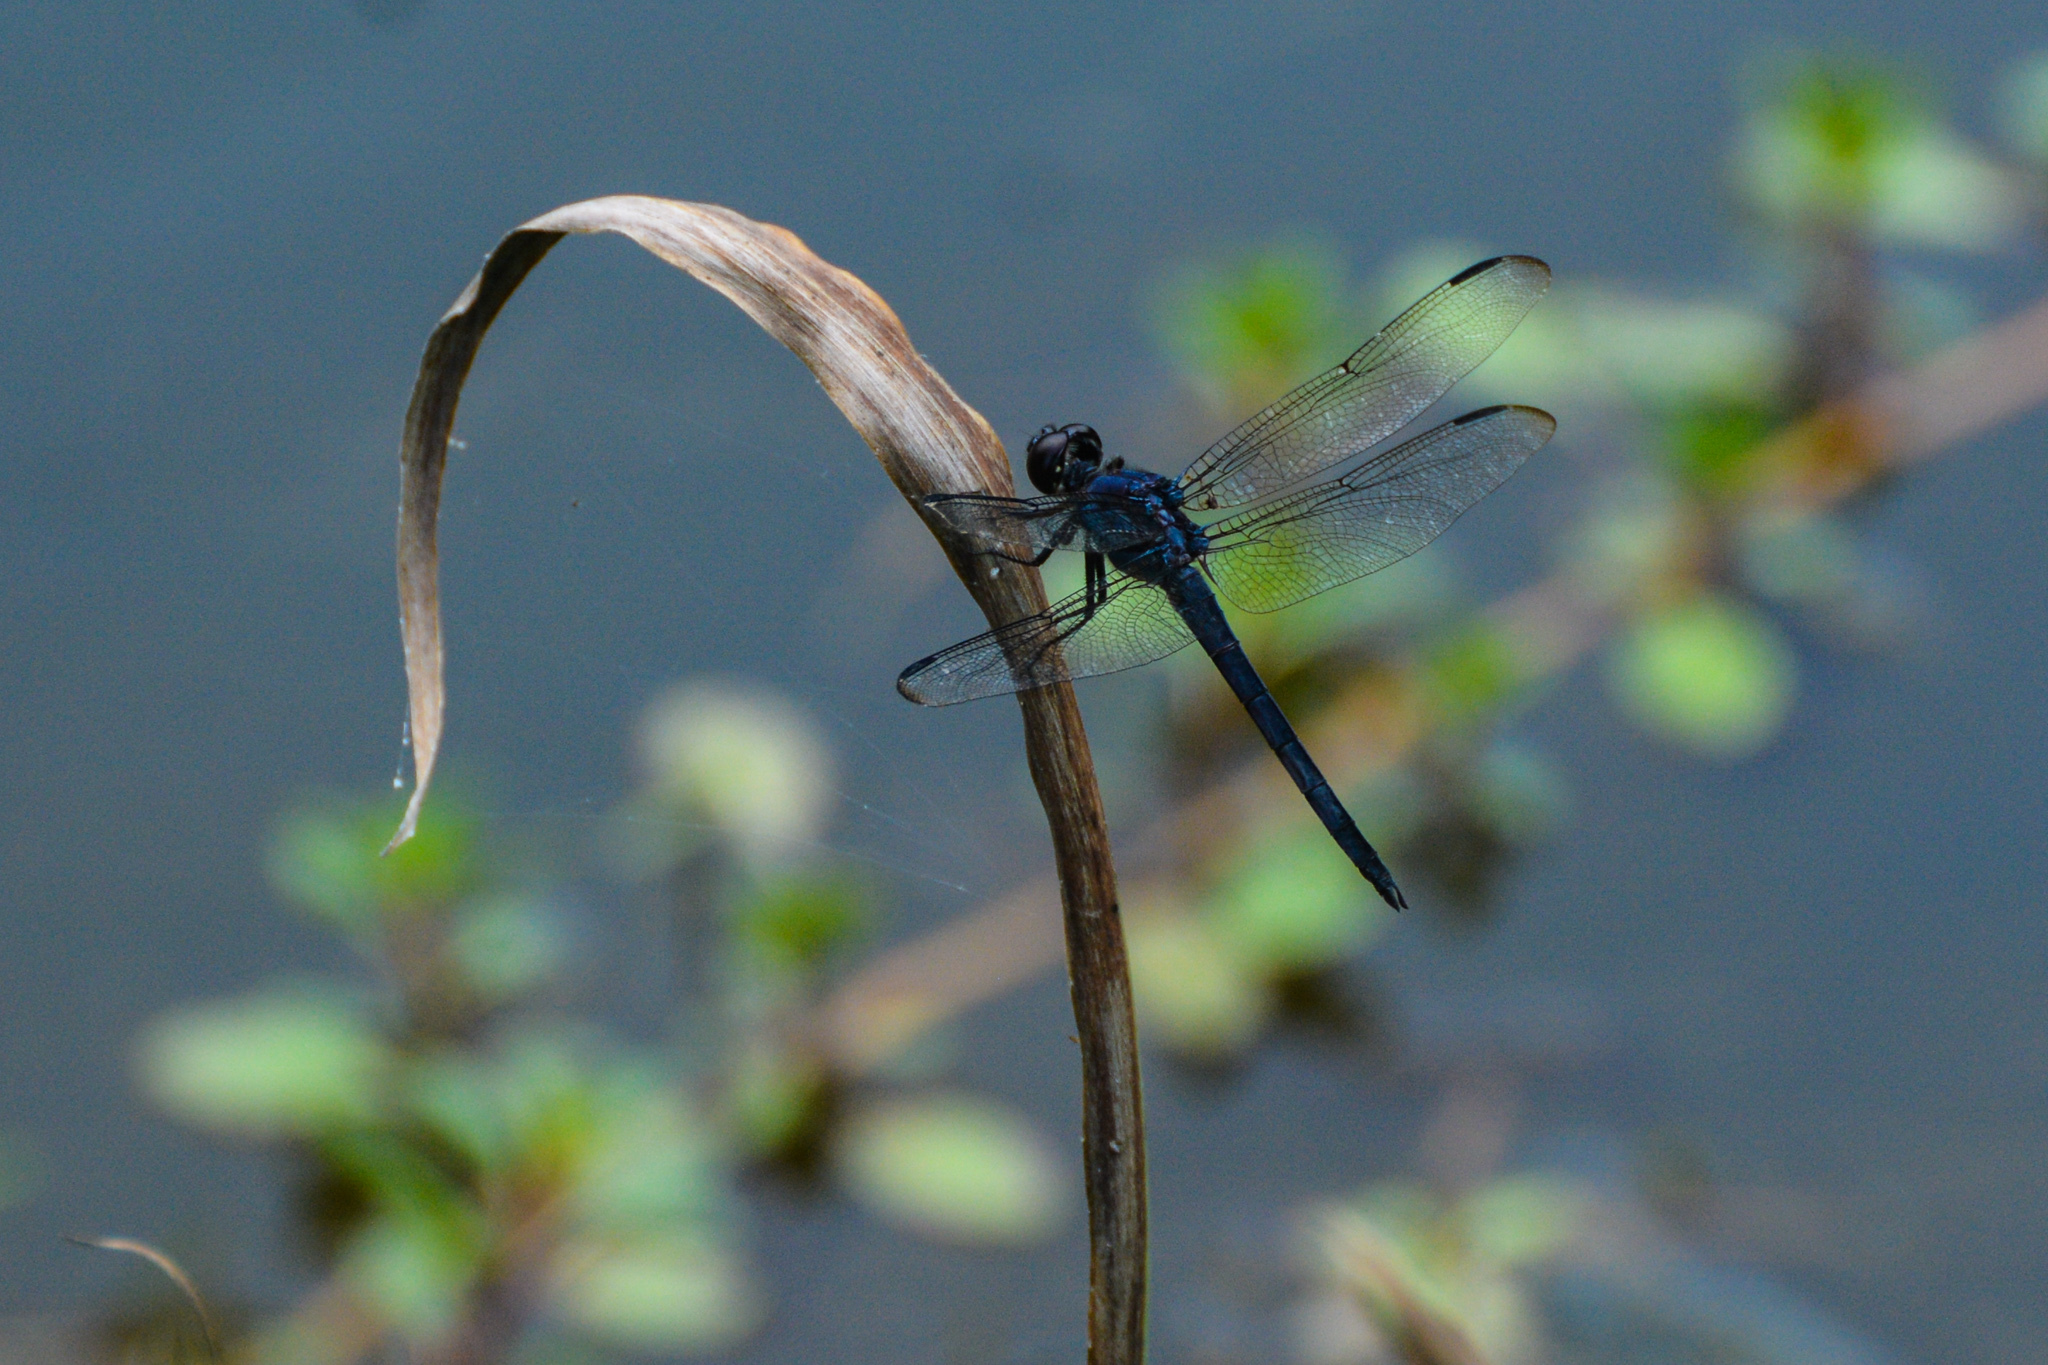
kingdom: Animalia
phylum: Arthropoda
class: Insecta
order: Odonata
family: Libellulidae
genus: Libellula
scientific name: Libellula incesta
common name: Slaty skimmer
